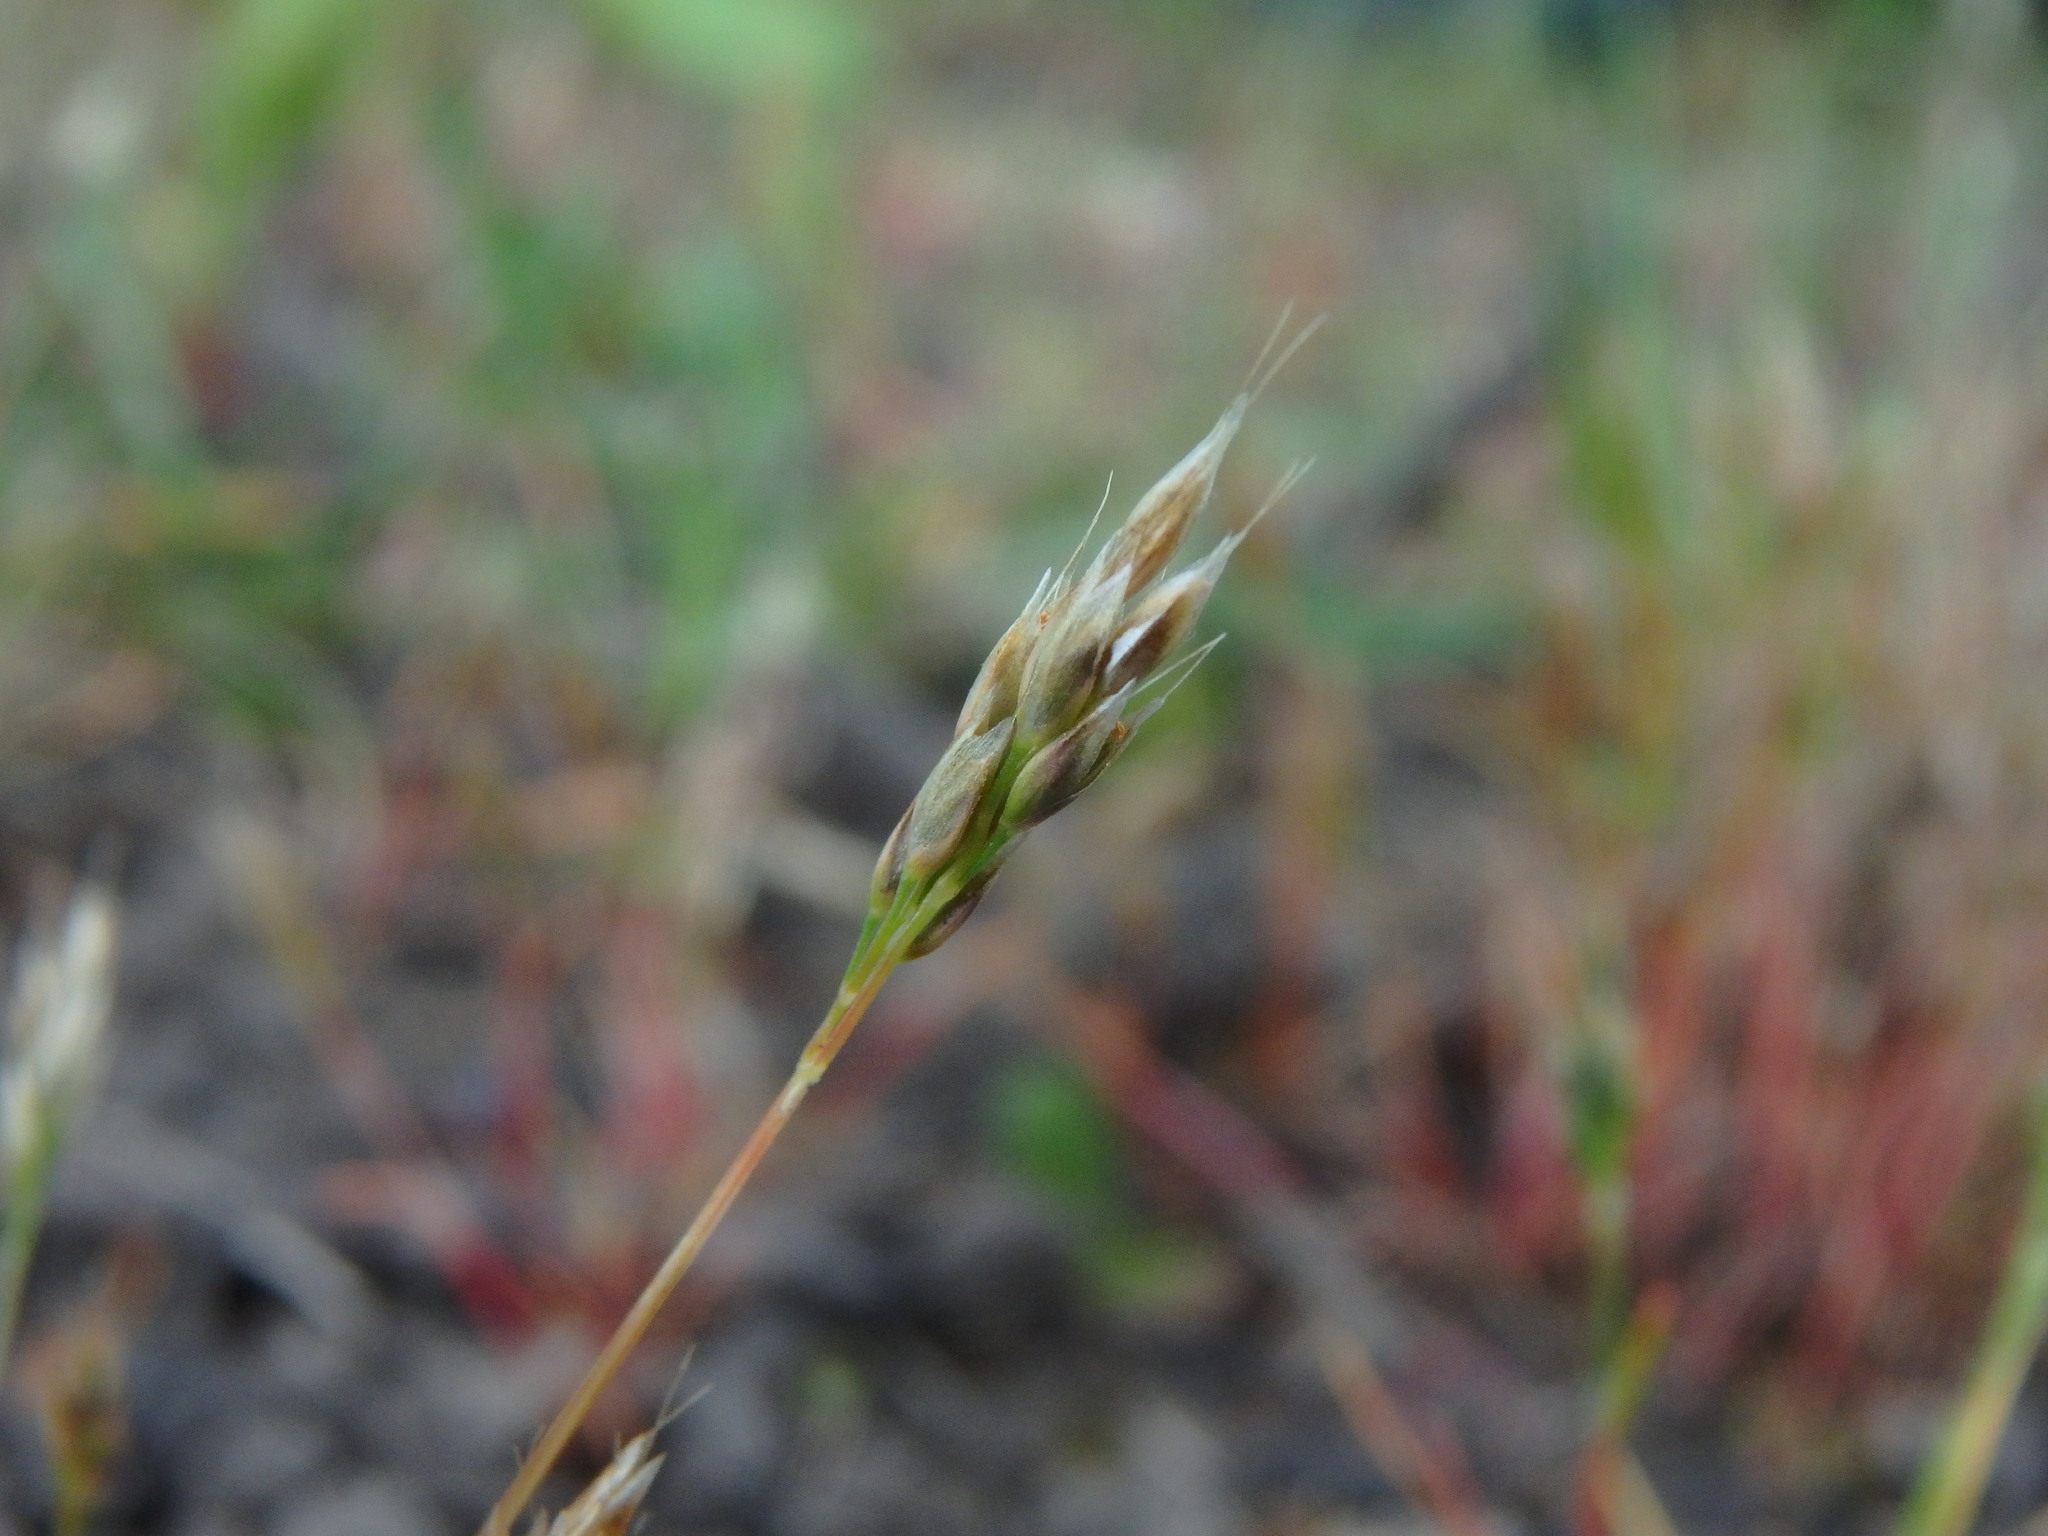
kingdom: Plantae
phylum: Tracheophyta
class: Liliopsida
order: Poales
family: Poaceae
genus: Aira
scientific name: Aira praecox
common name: Early hair-grass
